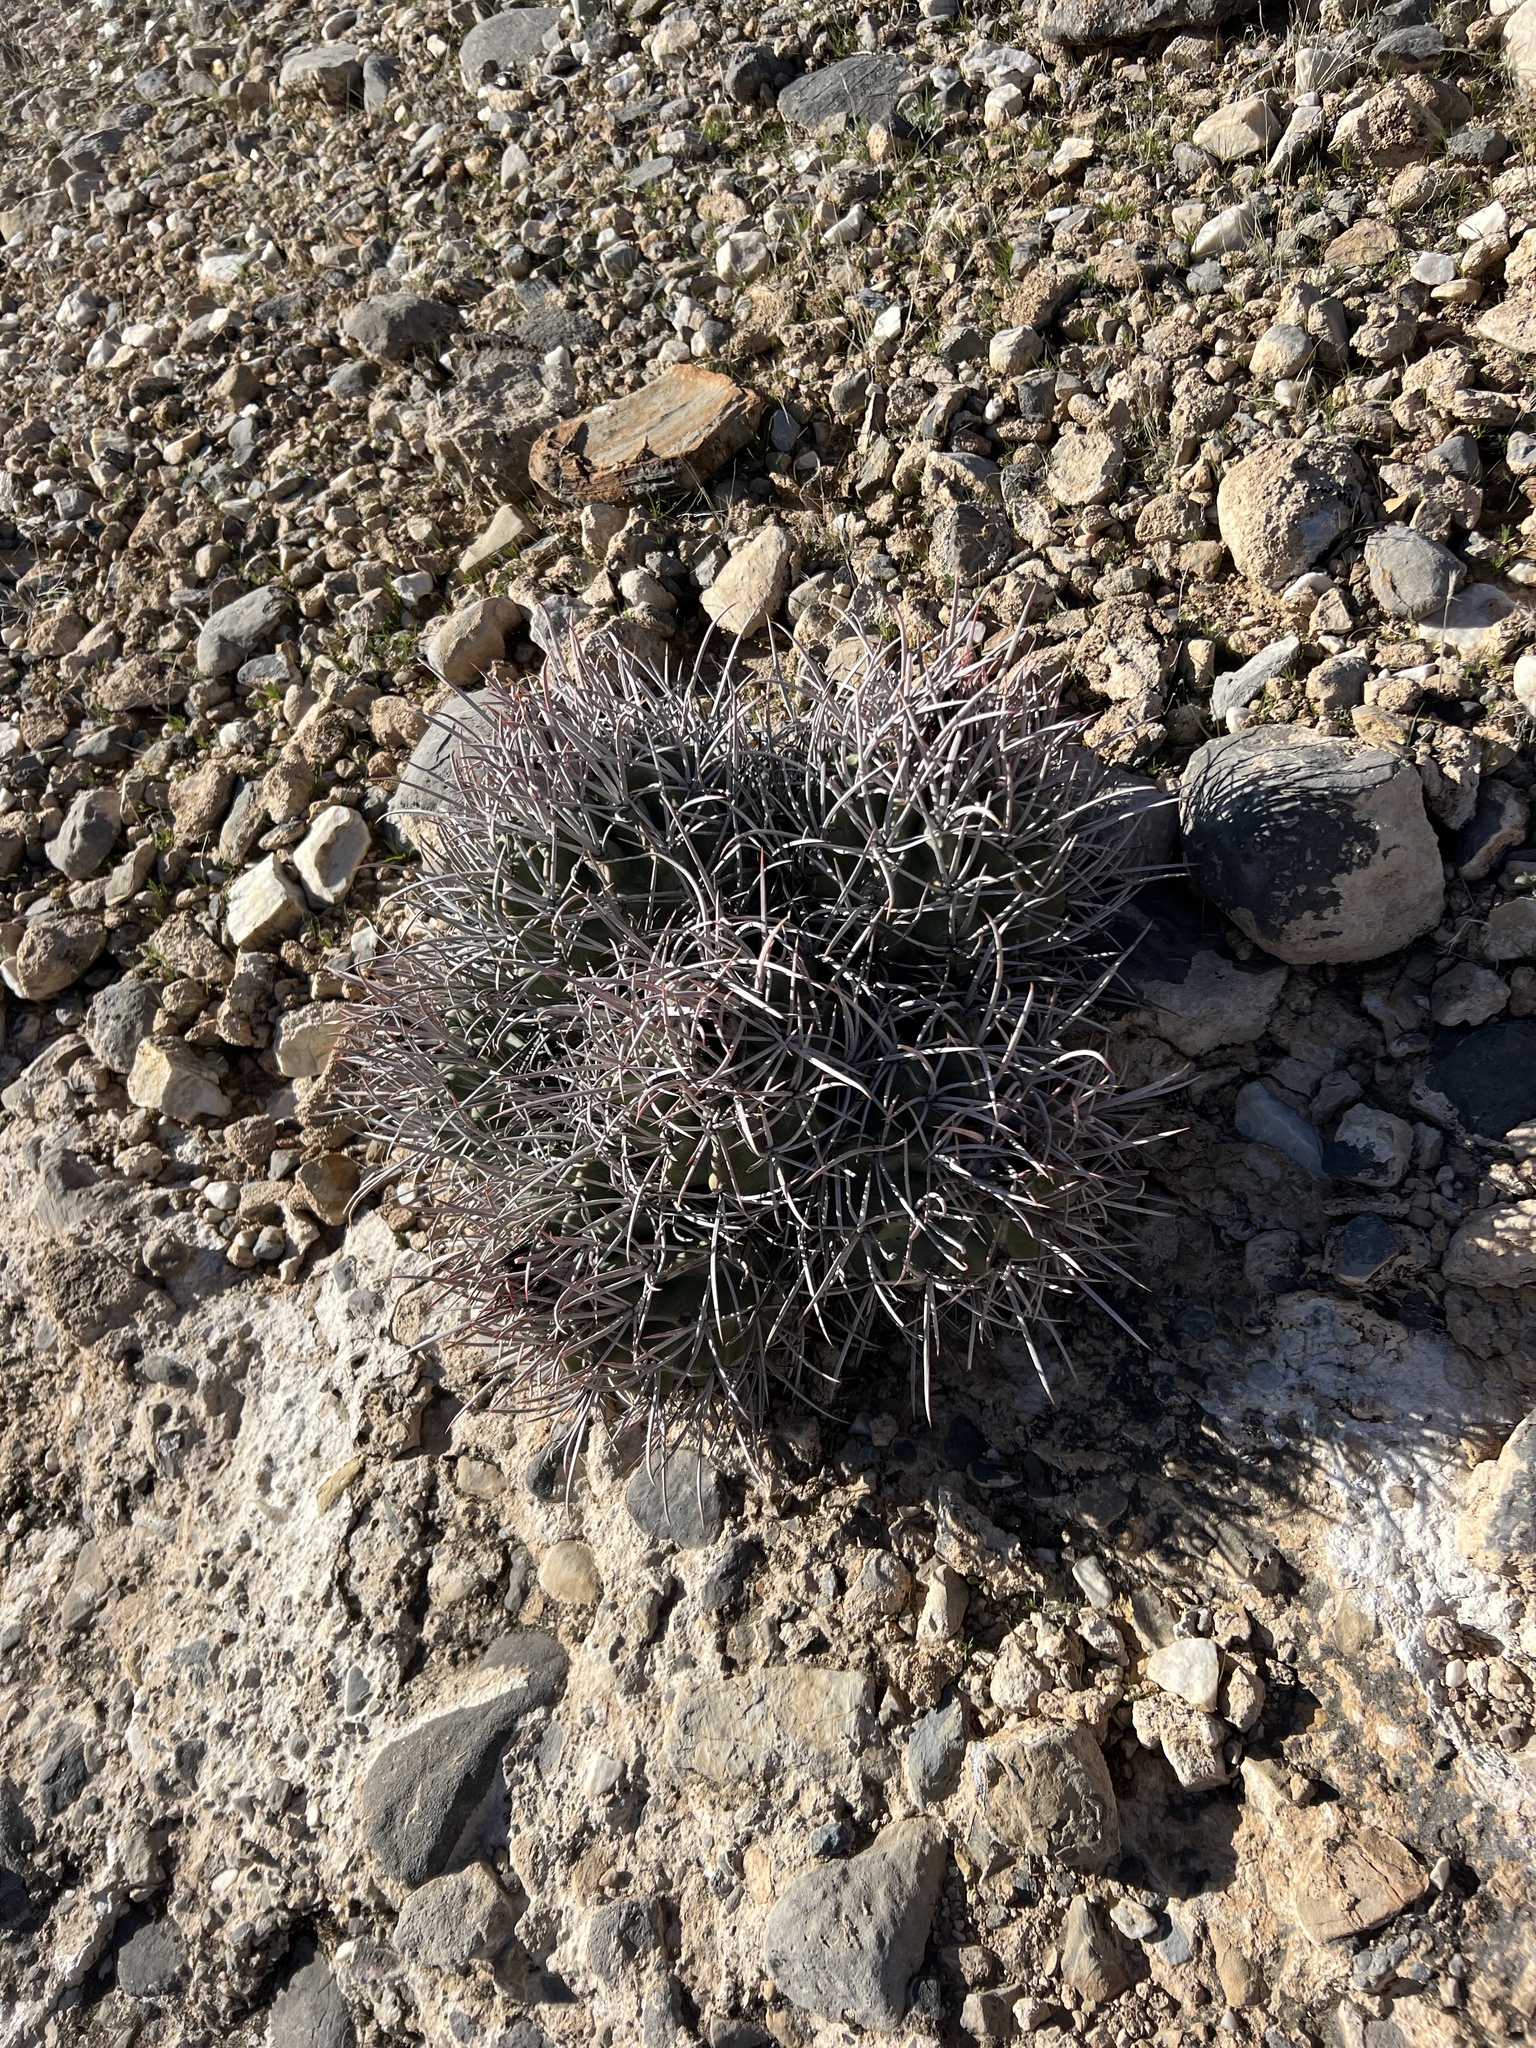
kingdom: Plantae
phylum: Tracheophyta
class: Magnoliopsida
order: Caryophyllales
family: Cactaceae
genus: Echinocactus
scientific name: Echinocactus polycephalus
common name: Cottontop cactus
